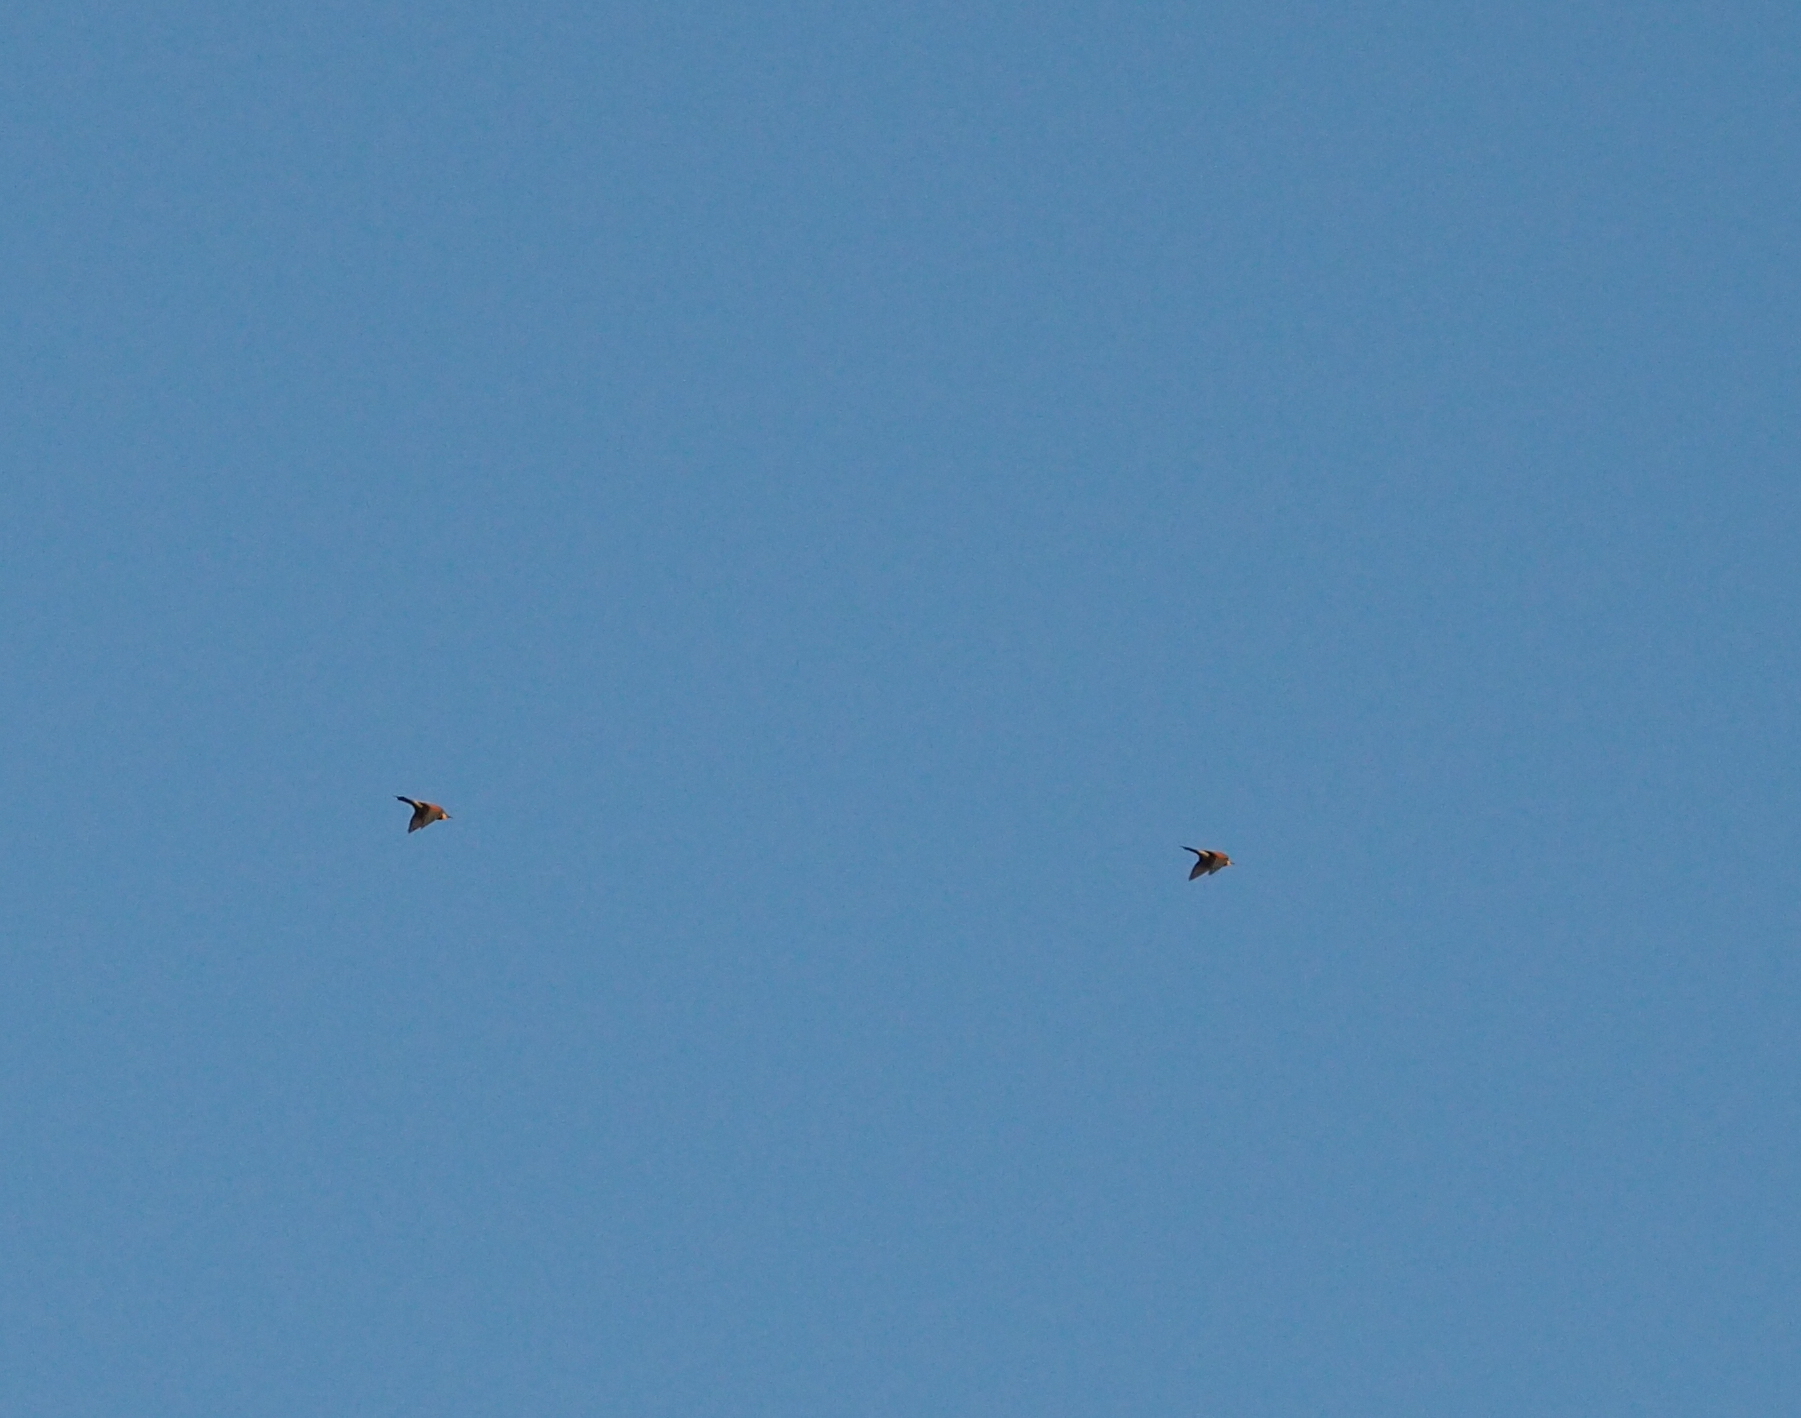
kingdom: Animalia
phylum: Chordata
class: Aves
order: Coraciiformes
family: Meropidae
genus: Merops
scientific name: Merops apiaster
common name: European bee-eater
